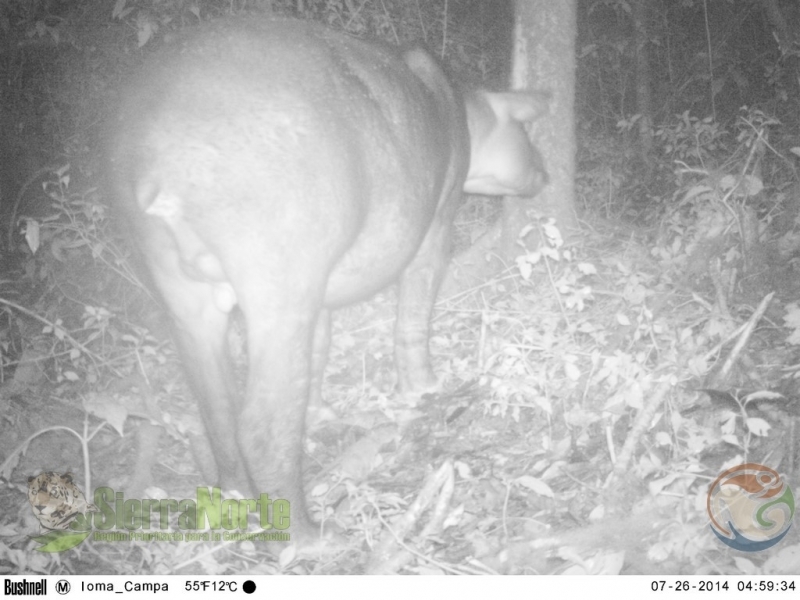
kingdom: Animalia
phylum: Chordata
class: Mammalia
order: Perissodactyla
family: Tapiridae
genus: Tapirella
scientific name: Tapirella bairdii
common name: Baird's tapir
